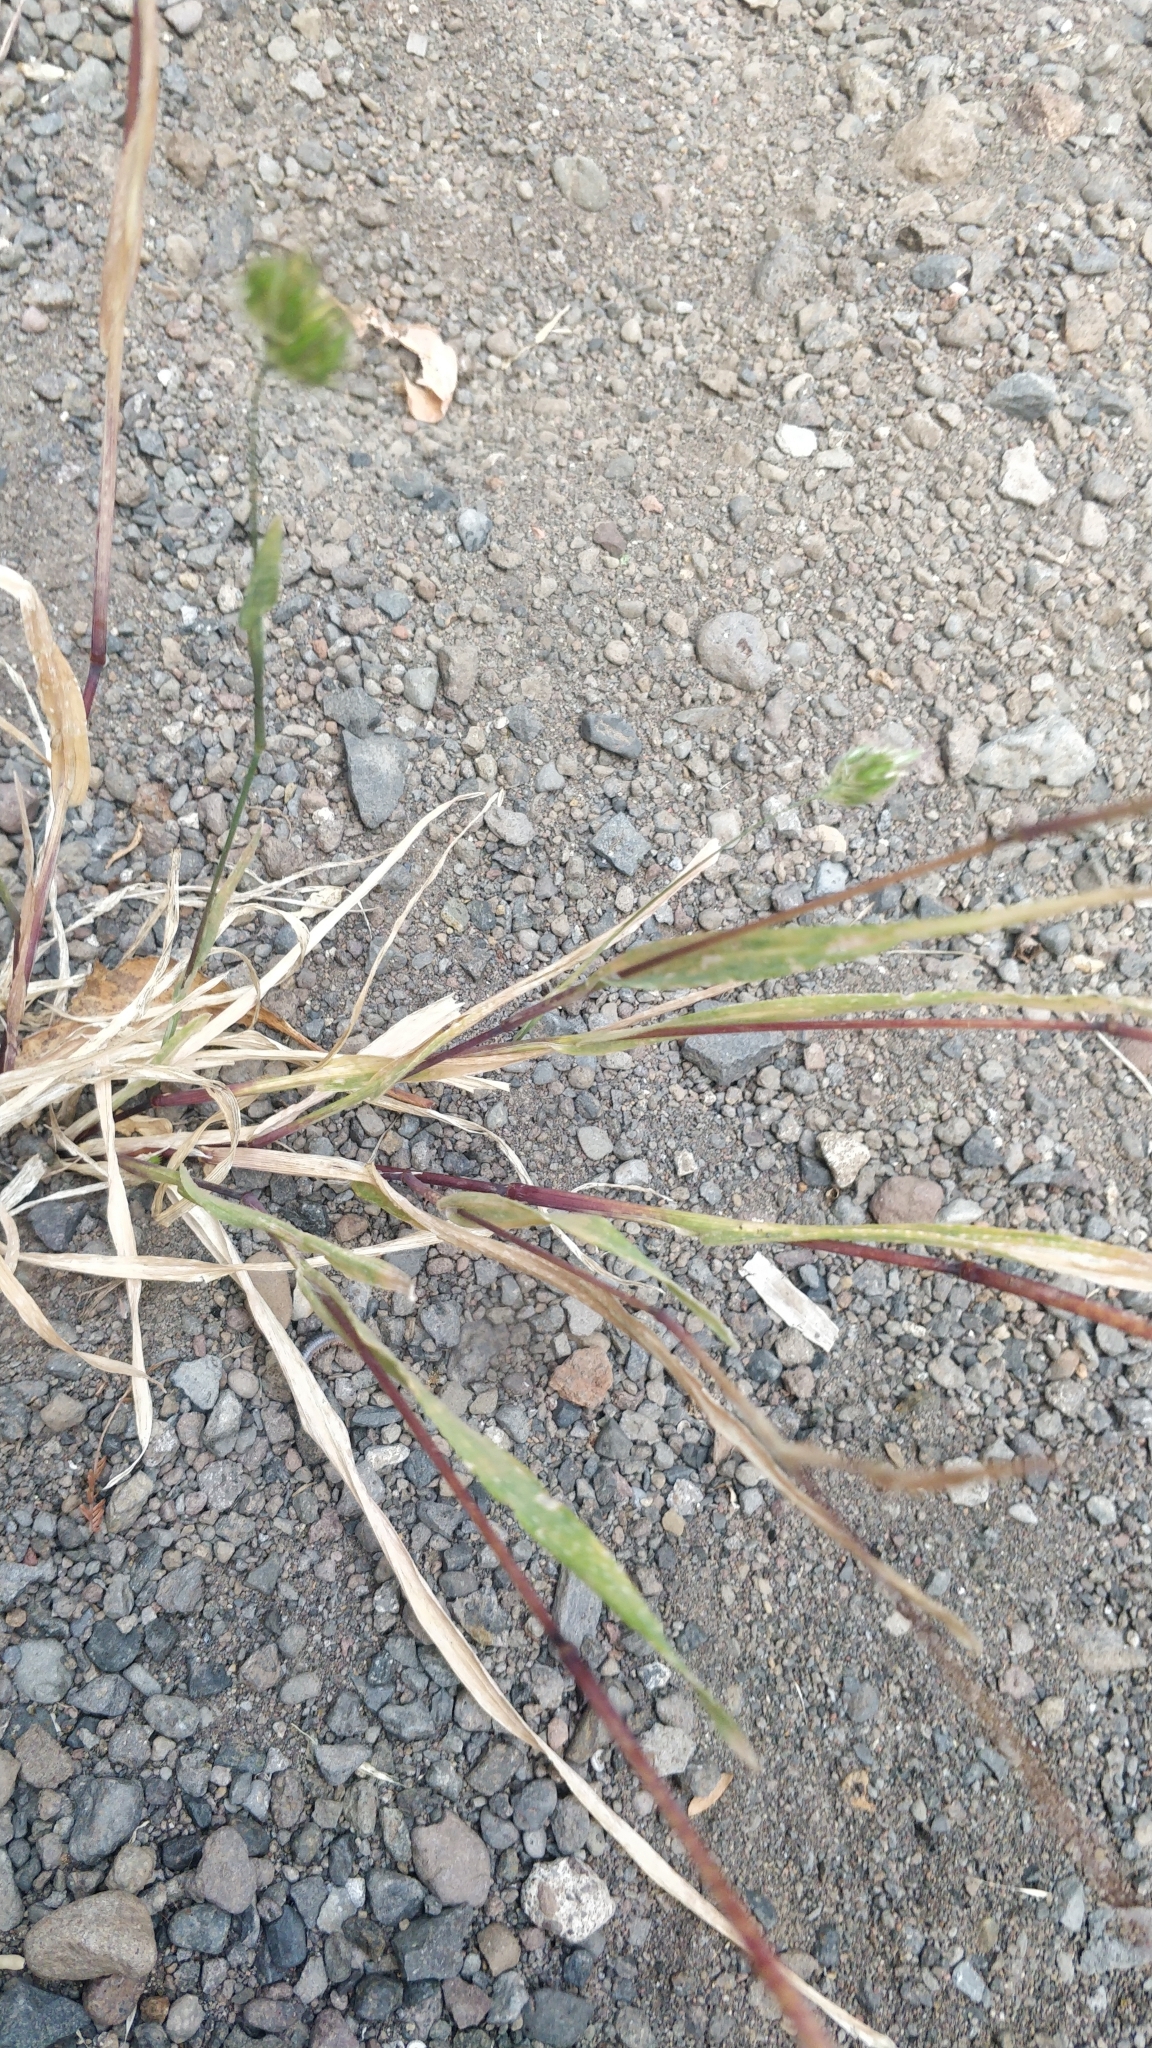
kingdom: Plantae
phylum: Tracheophyta
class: Liliopsida
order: Poales
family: Poaceae
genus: Cynosurus
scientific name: Cynosurus echinatus
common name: Rough dog's-tail
